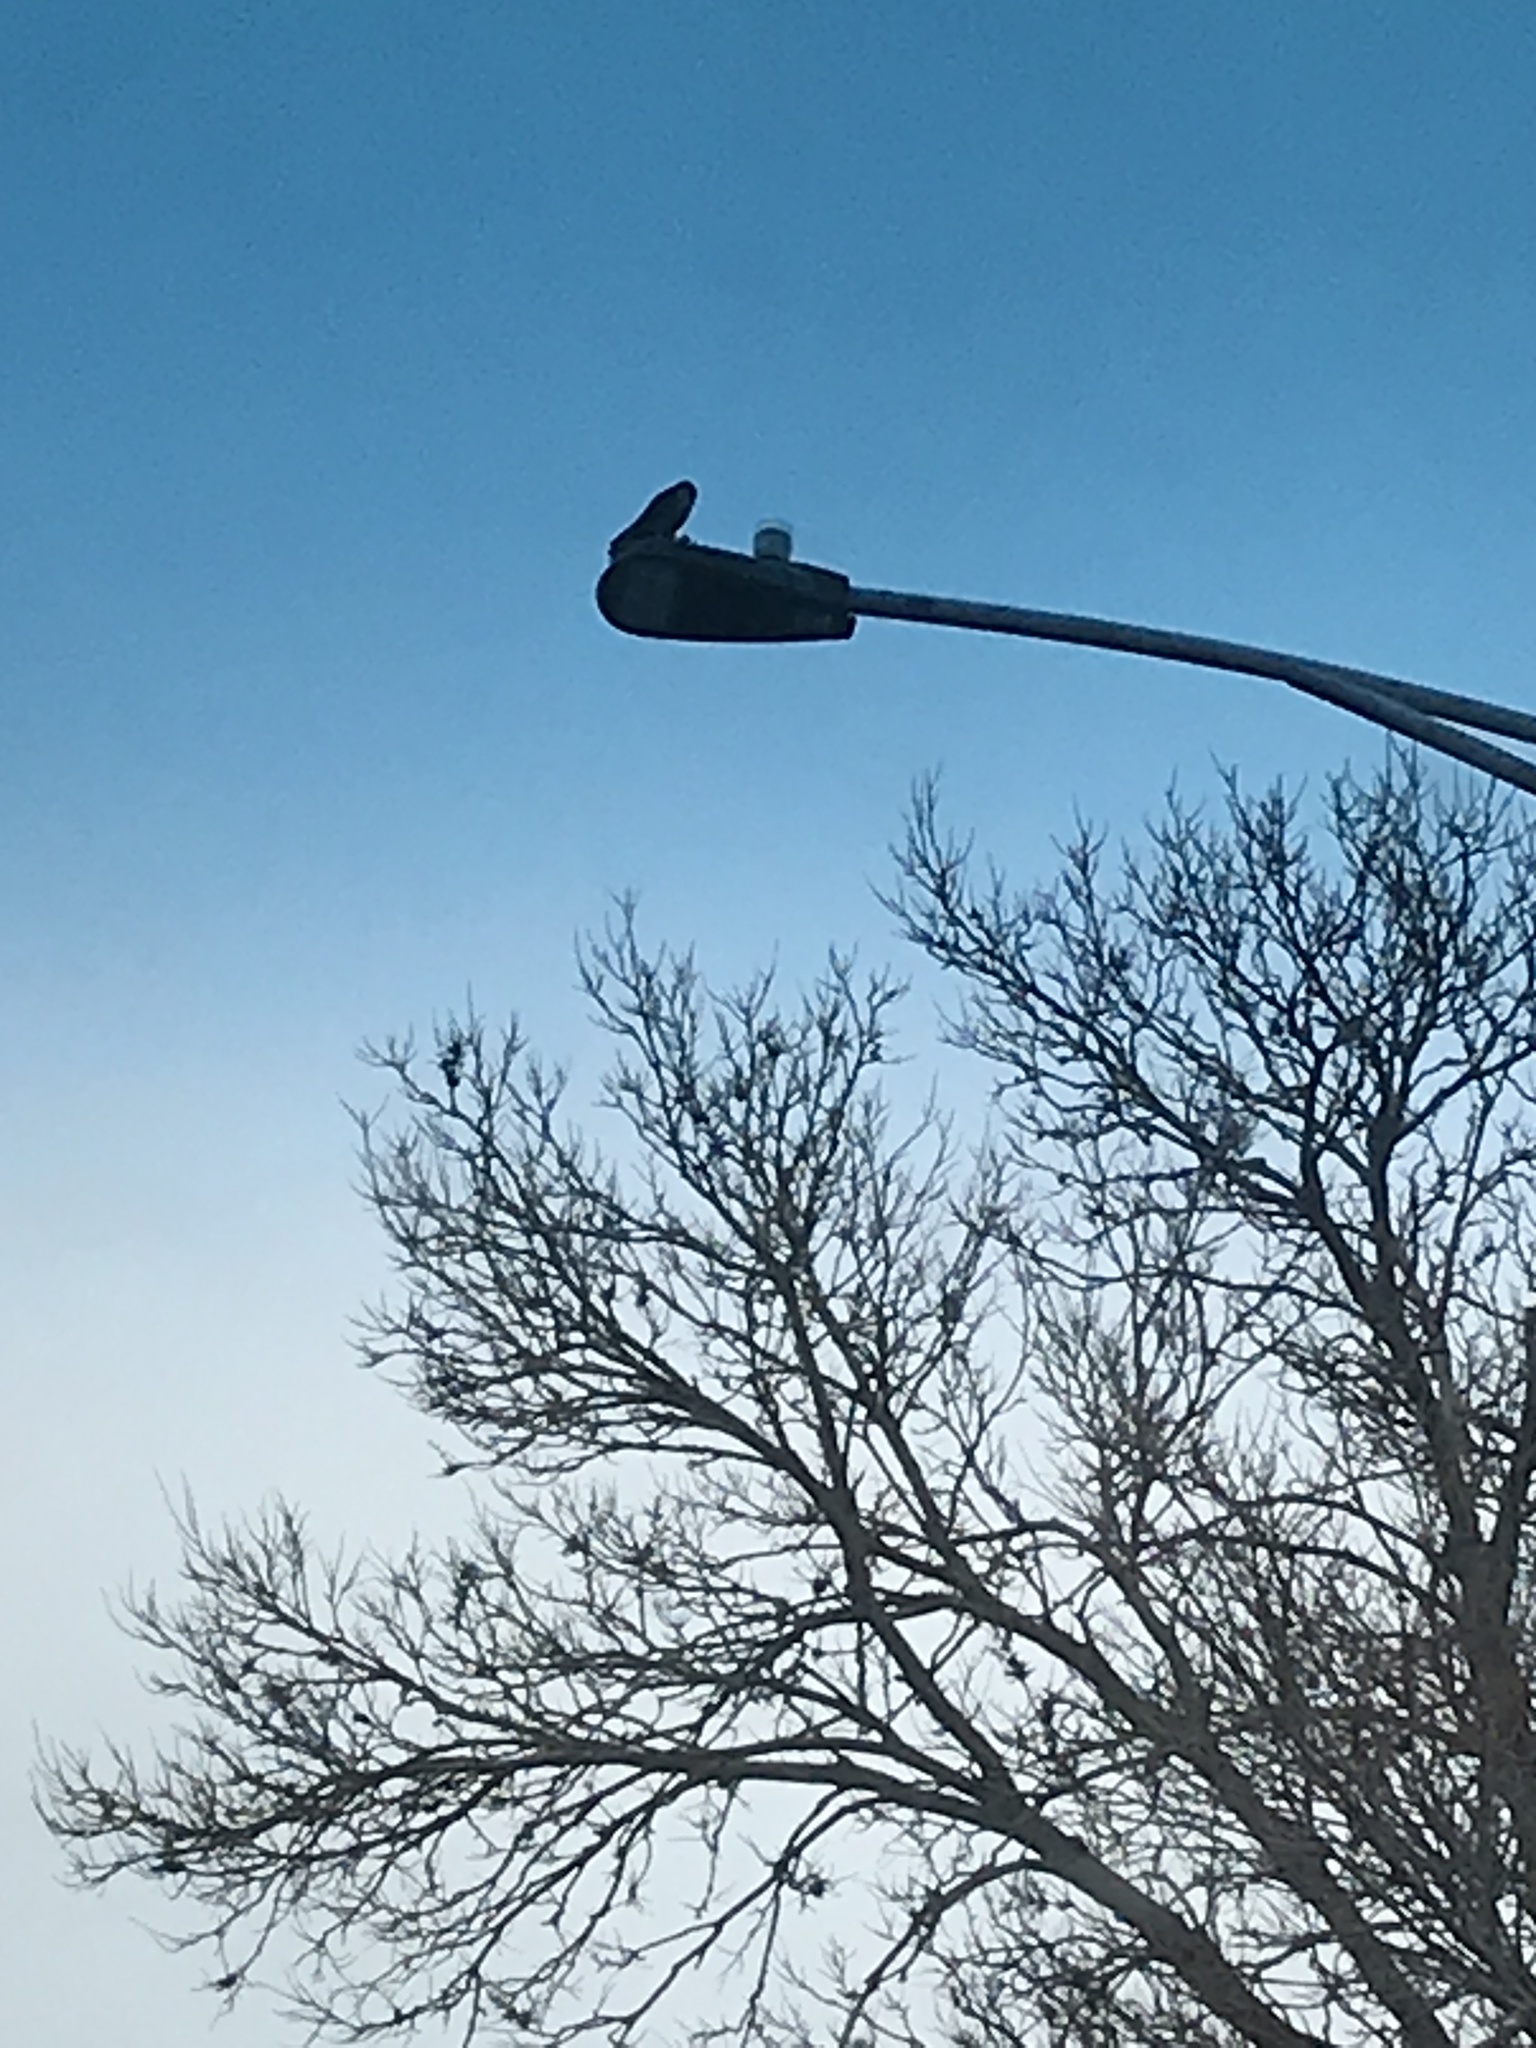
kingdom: Animalia
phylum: Chordata
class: Aves
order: Falconiformes
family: Falconidae
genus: Falco
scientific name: Falco sparverius
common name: American kestrel
